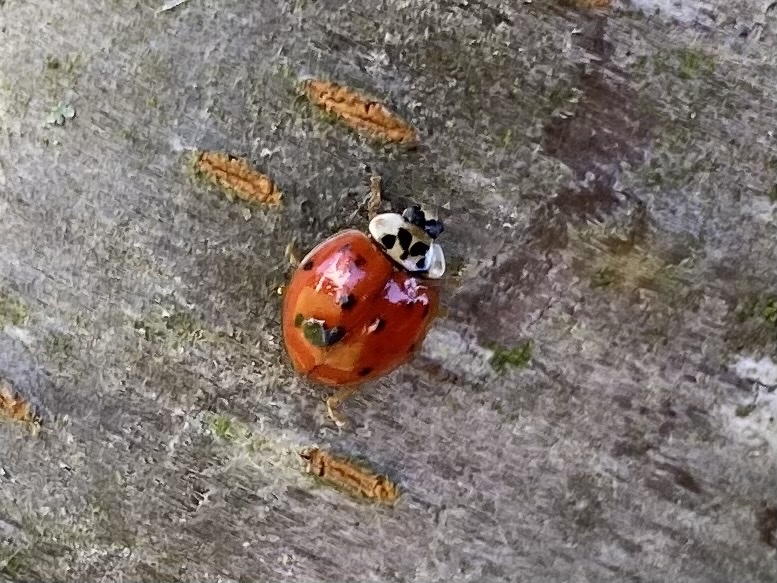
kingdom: Animalia
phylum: Arthropoda
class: Insecta
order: Coleoptera
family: Coccinellidae
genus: Harmonia
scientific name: Harmonia axyridis
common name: Harlequin ladybird
